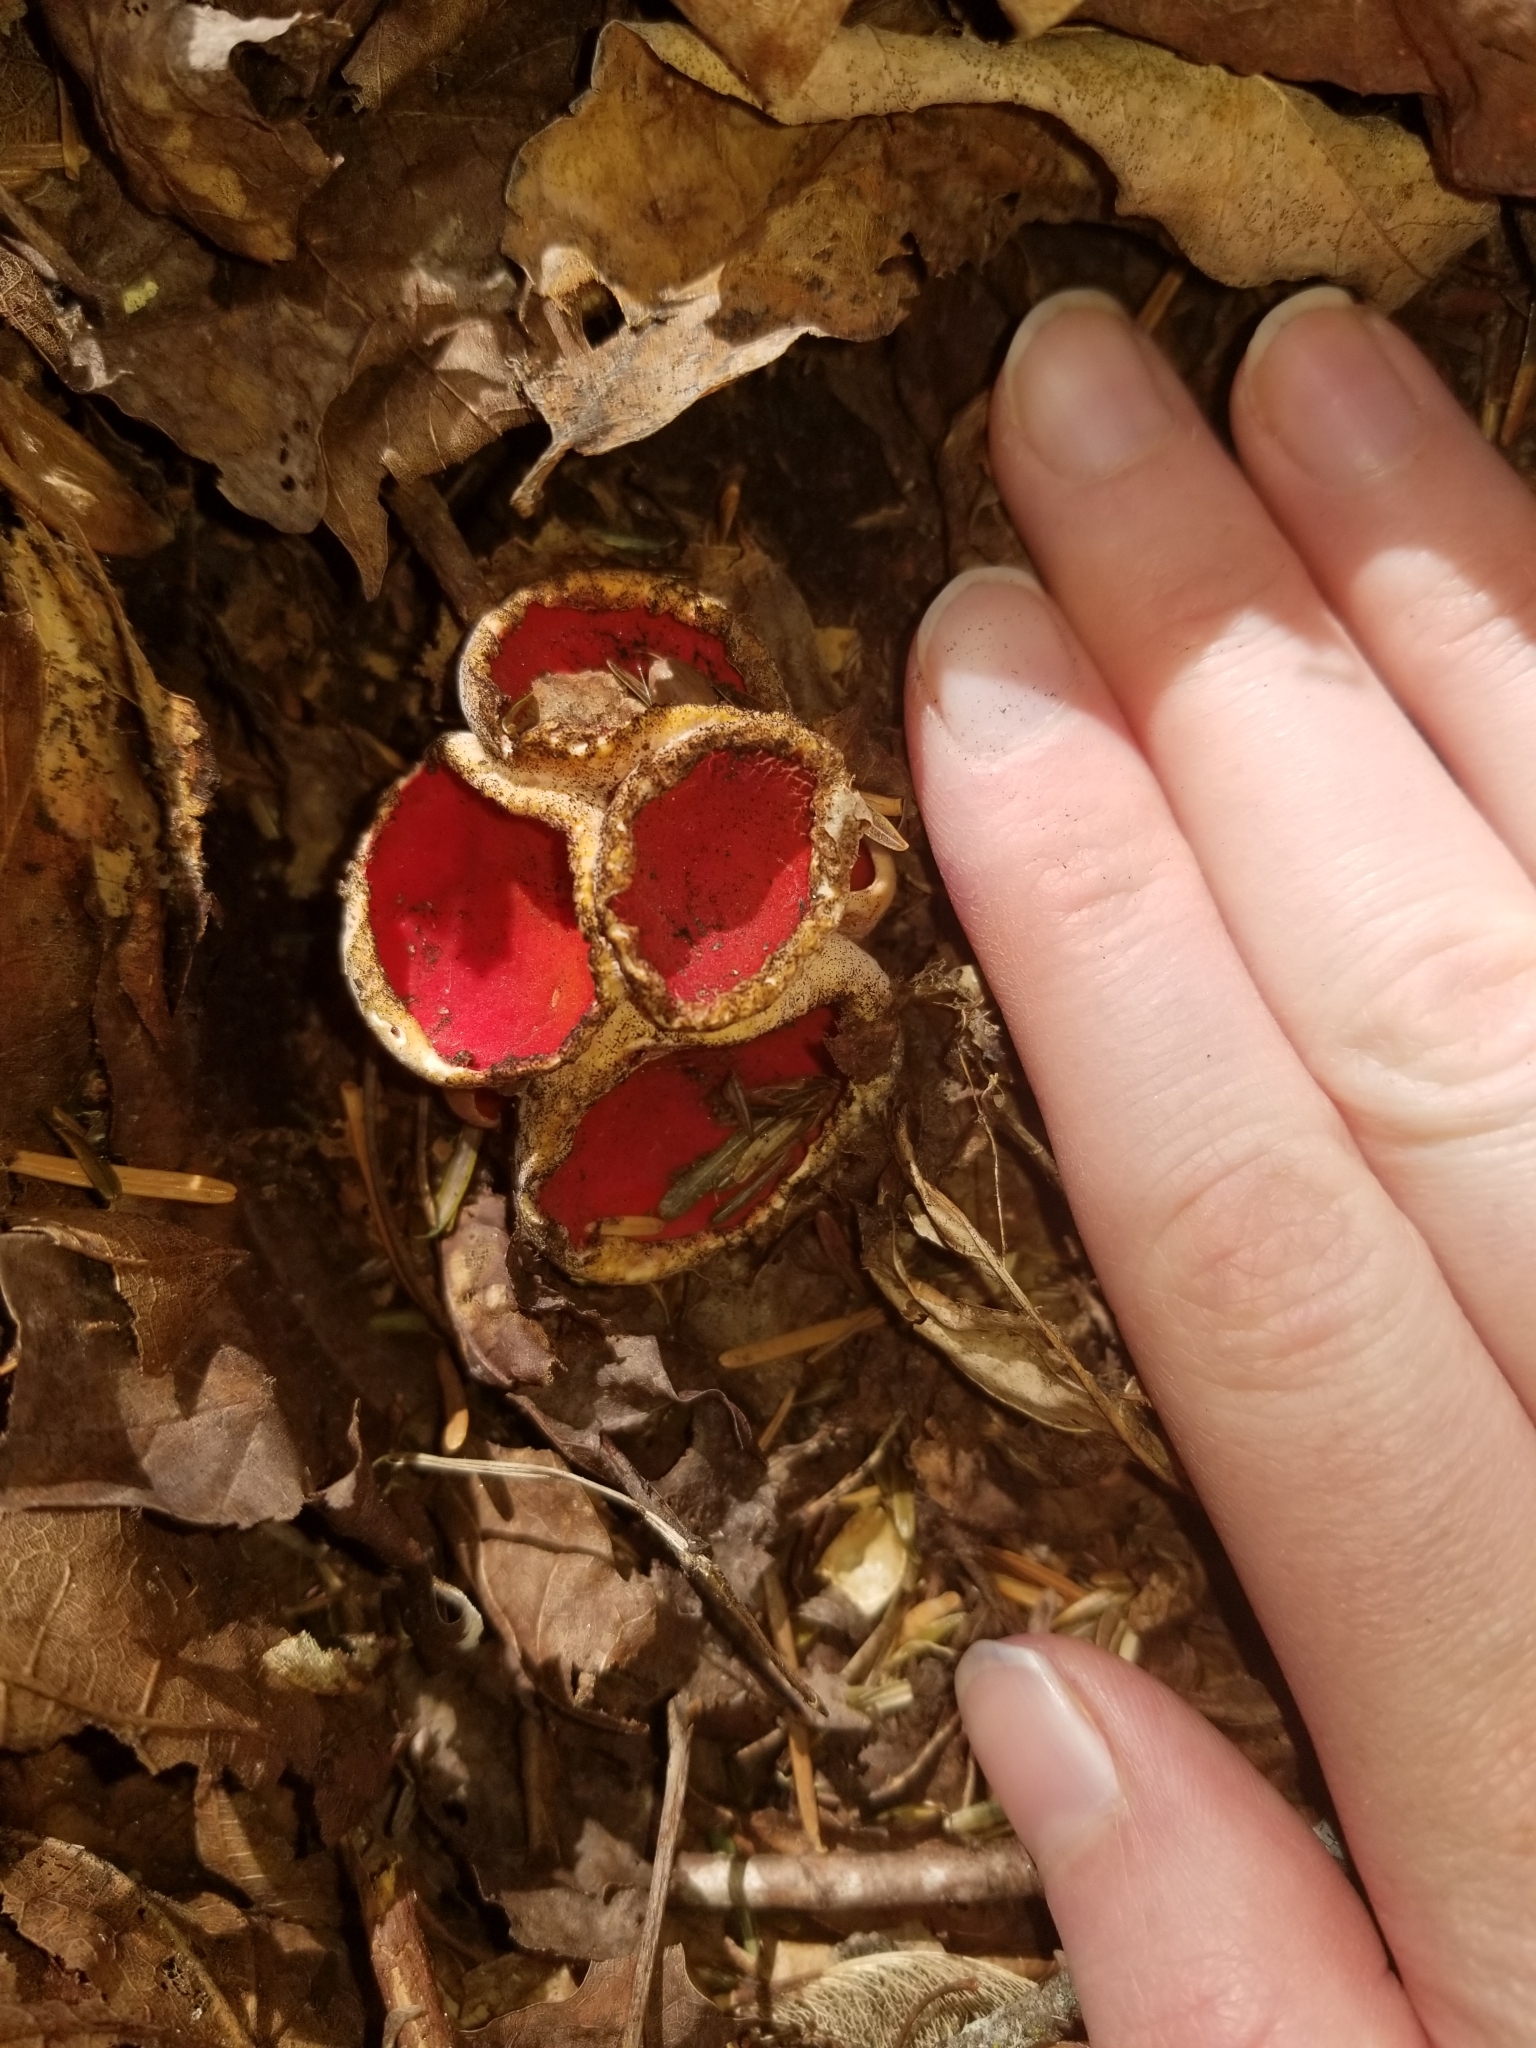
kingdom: Fungi
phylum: Ascomycota
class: Pezizomycetes
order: Pezizales
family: Sarcoscyphaceae
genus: Sarcoscypha
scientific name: Sarcoscypha austriaca
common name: Scarlet elfcup
